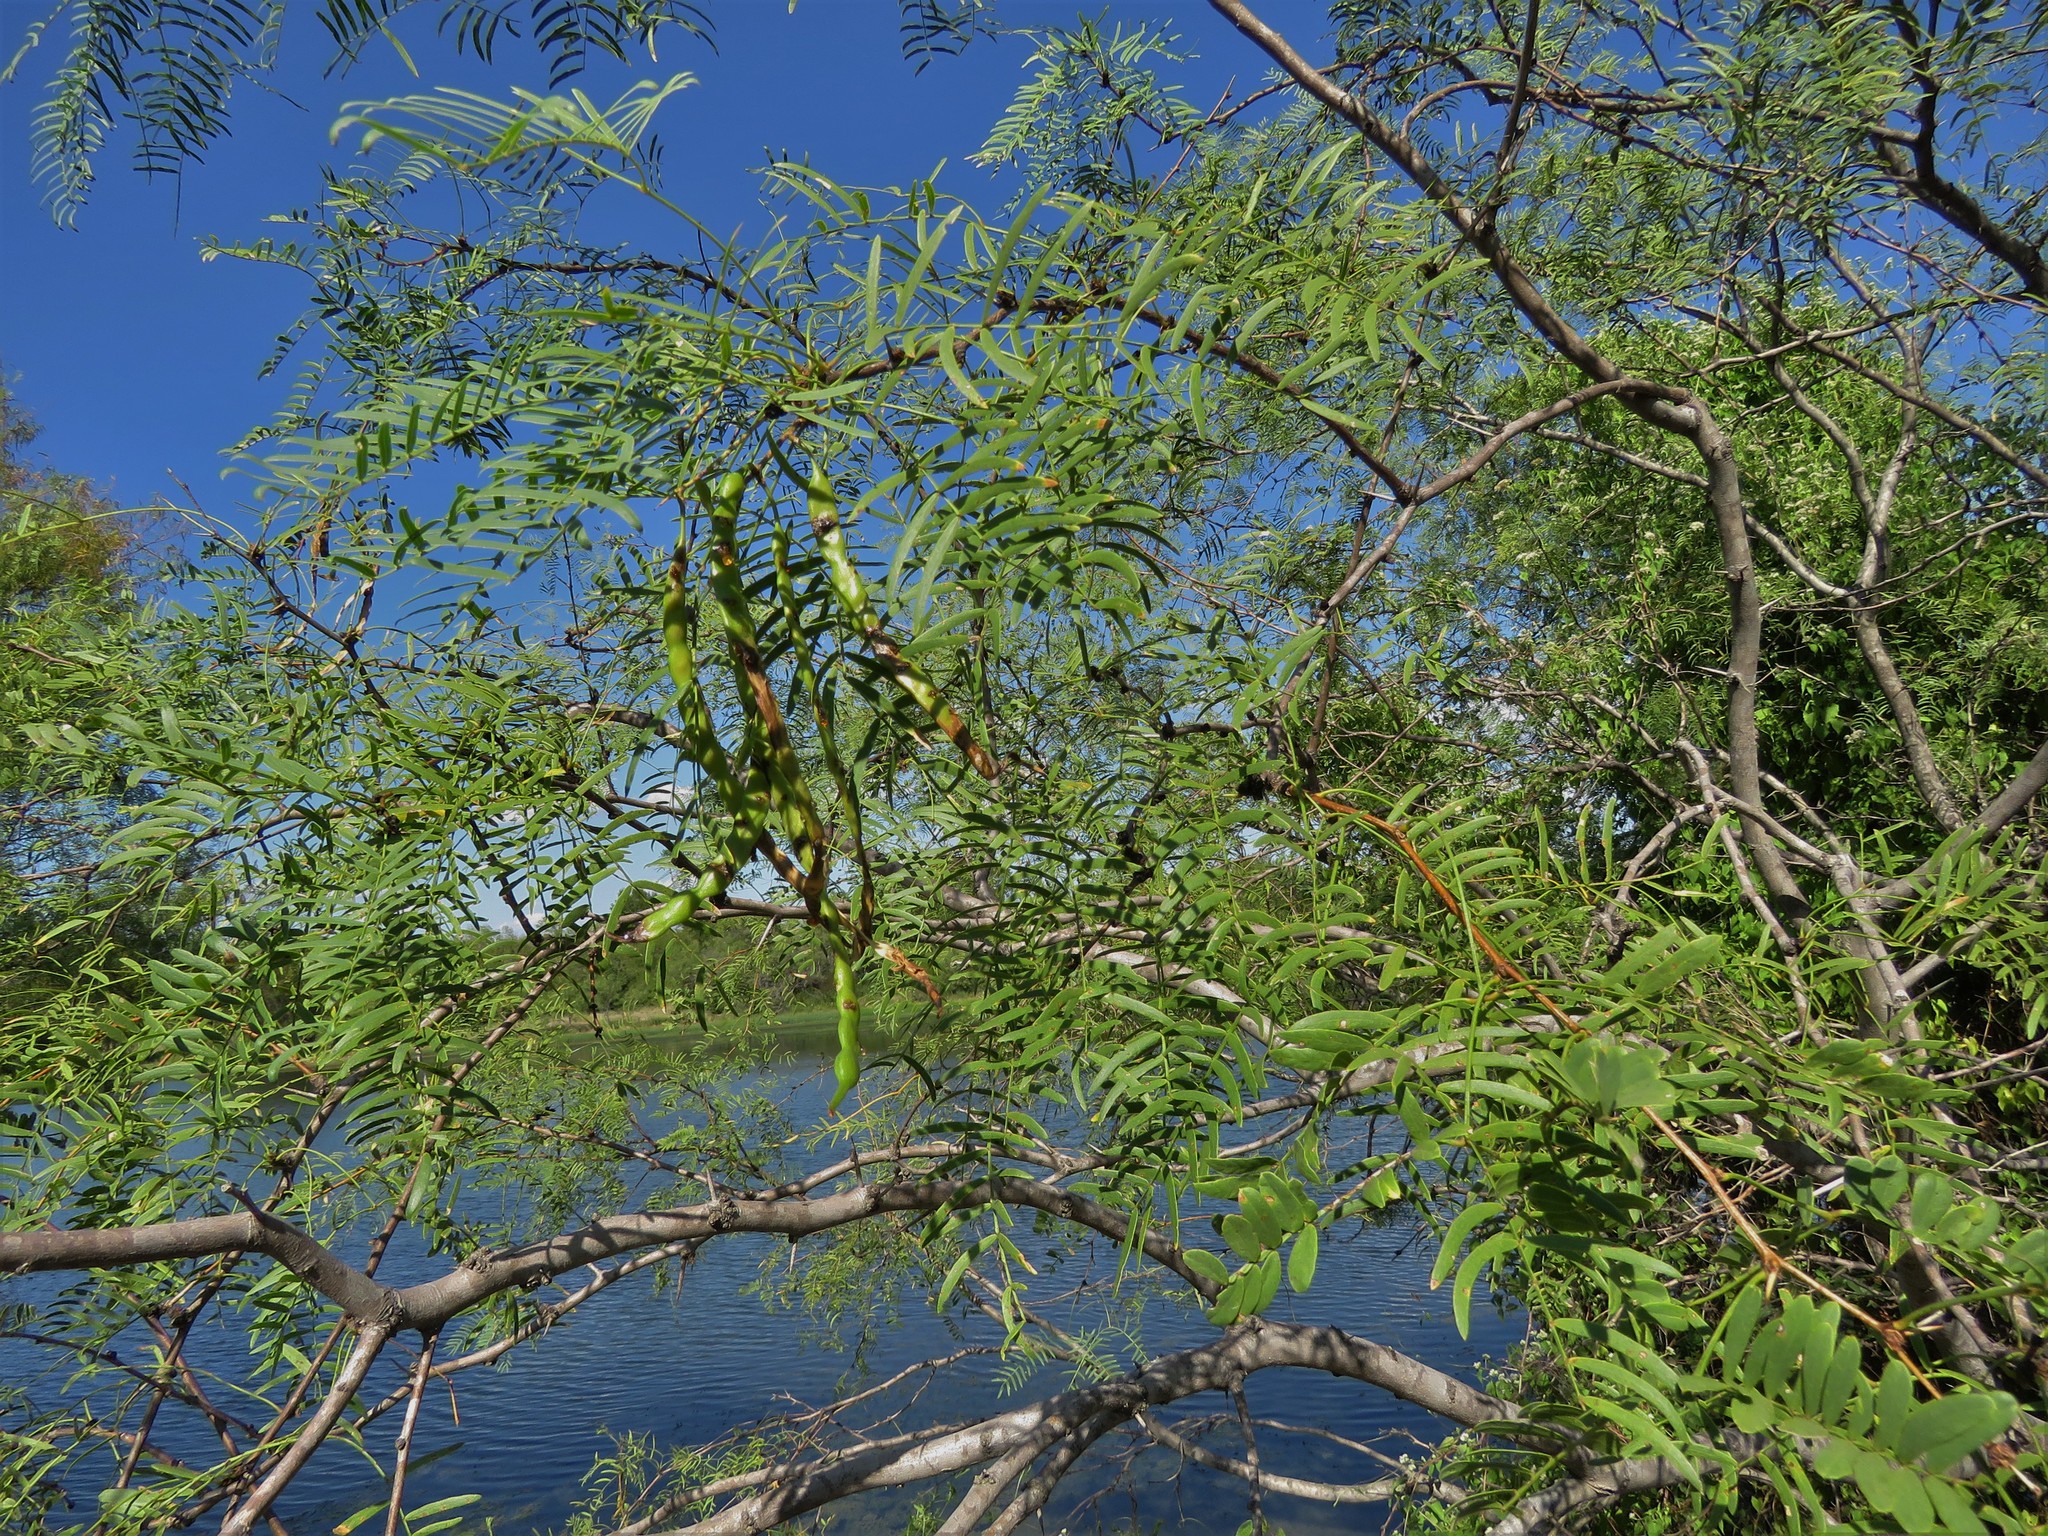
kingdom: Plantae
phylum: Tracheophyta
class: Magnoliopsida
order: Fabales
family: Fabaceae
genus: Prosopis
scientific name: Prosopis glandulosa
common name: Honey mesquite
